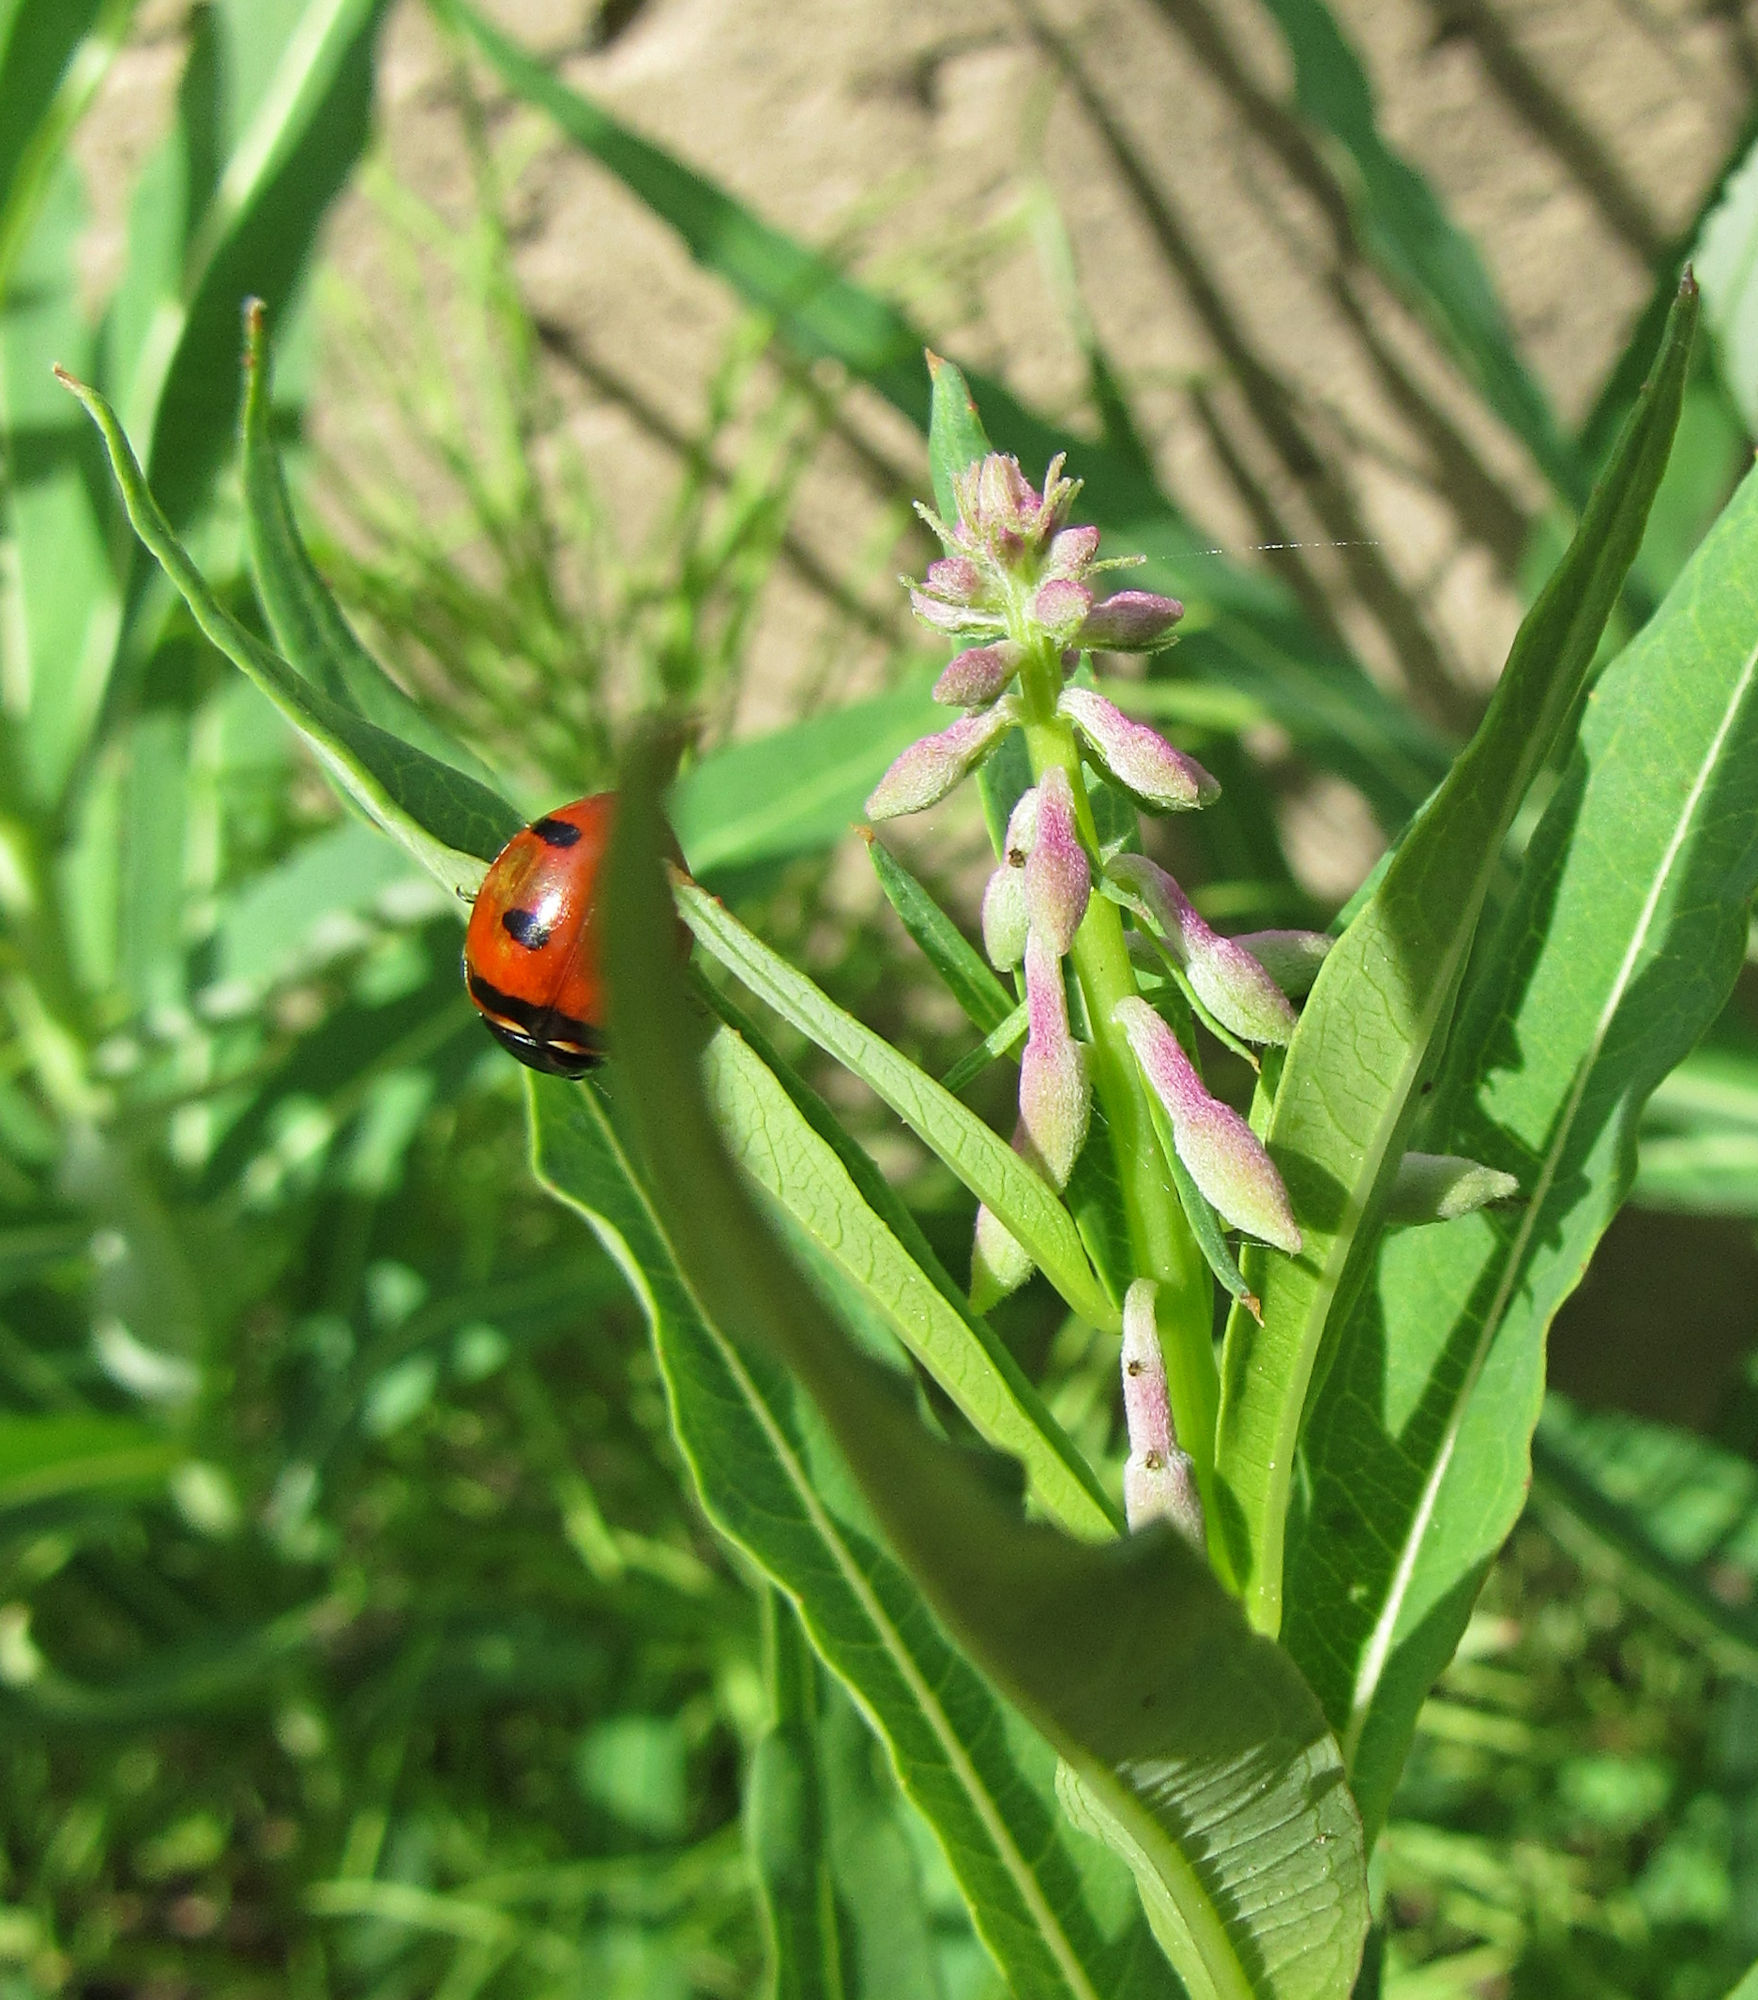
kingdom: Animalia
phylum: Arthropoda
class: Insecta
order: Coleoptera
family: Coccinellidae
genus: Coccinella
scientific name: Coccinella transversoguttata
